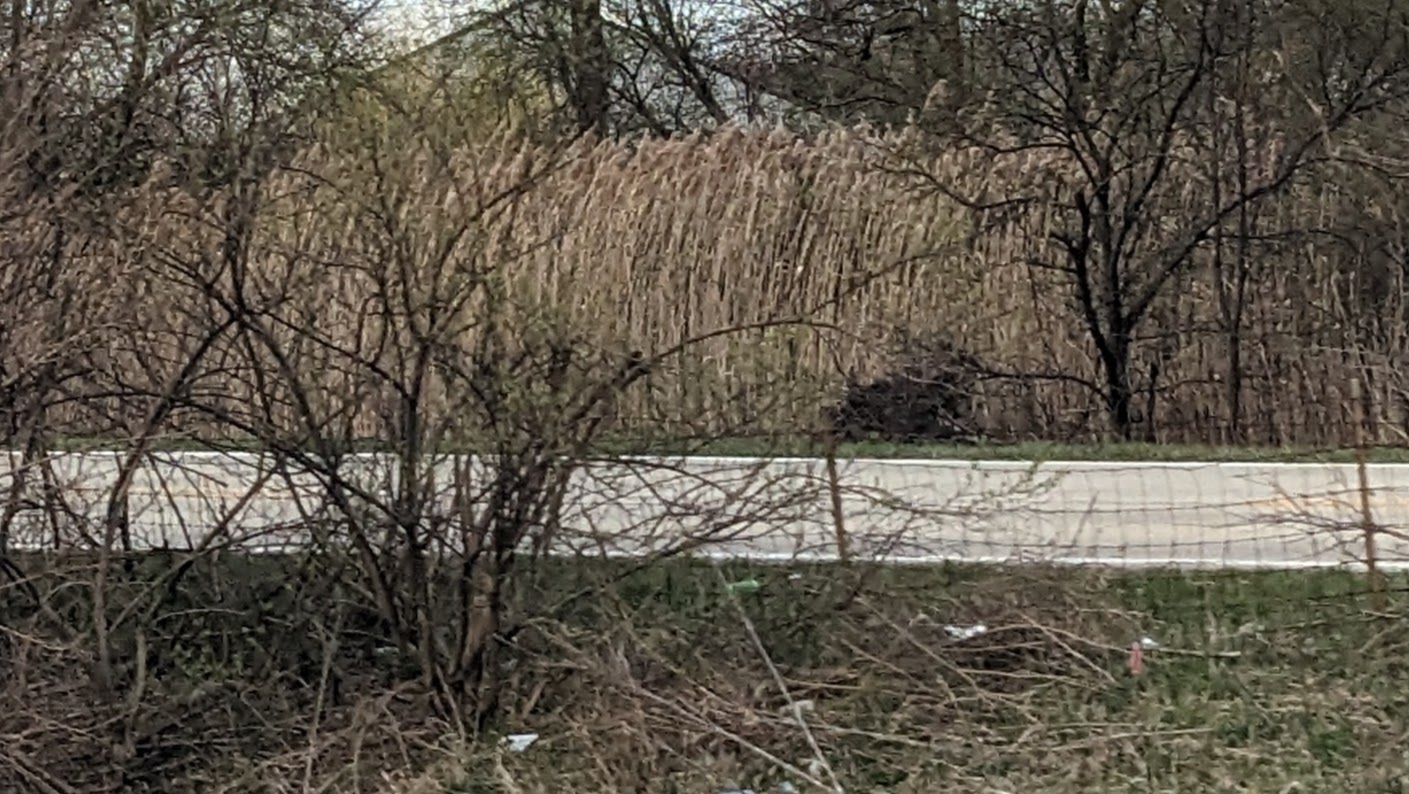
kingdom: Plantae
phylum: Tracheophyta
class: Liliopsida
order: Poales
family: Poaceae
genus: Phragmites
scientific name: Phragmites australis
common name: Common reed
